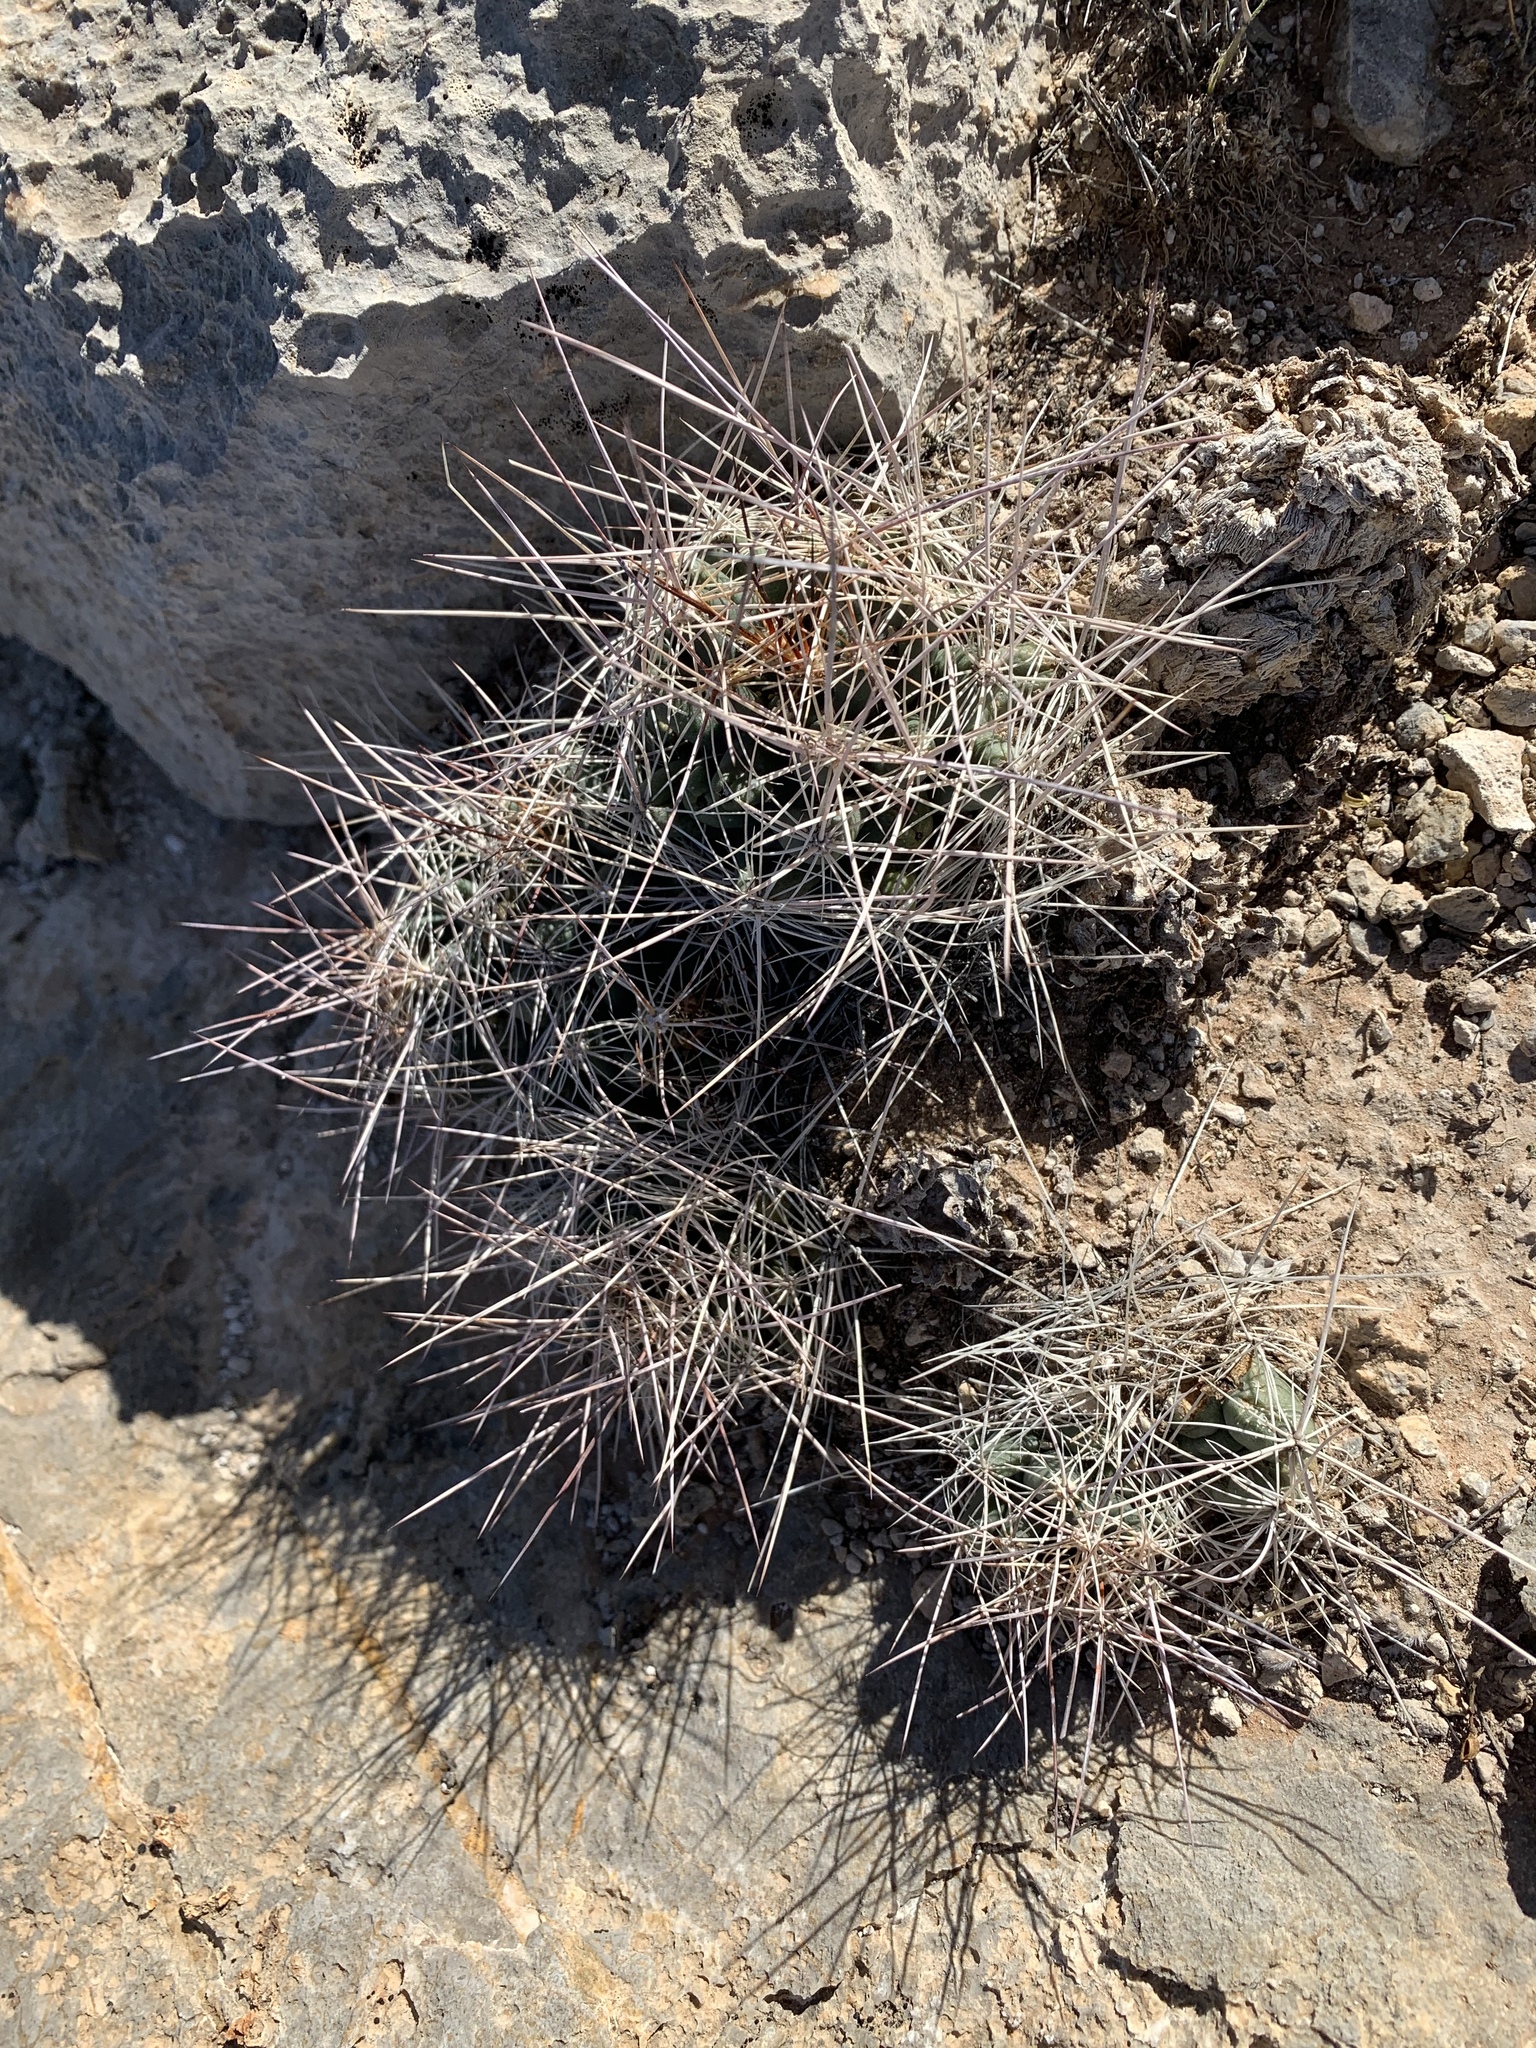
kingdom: Plantae
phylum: Tracheophyta
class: Magnoliopsida
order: Caryophyllales
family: Cactaceae
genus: Coryphantha
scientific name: Coryphantha macromeris
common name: Nipple beehive cactus
